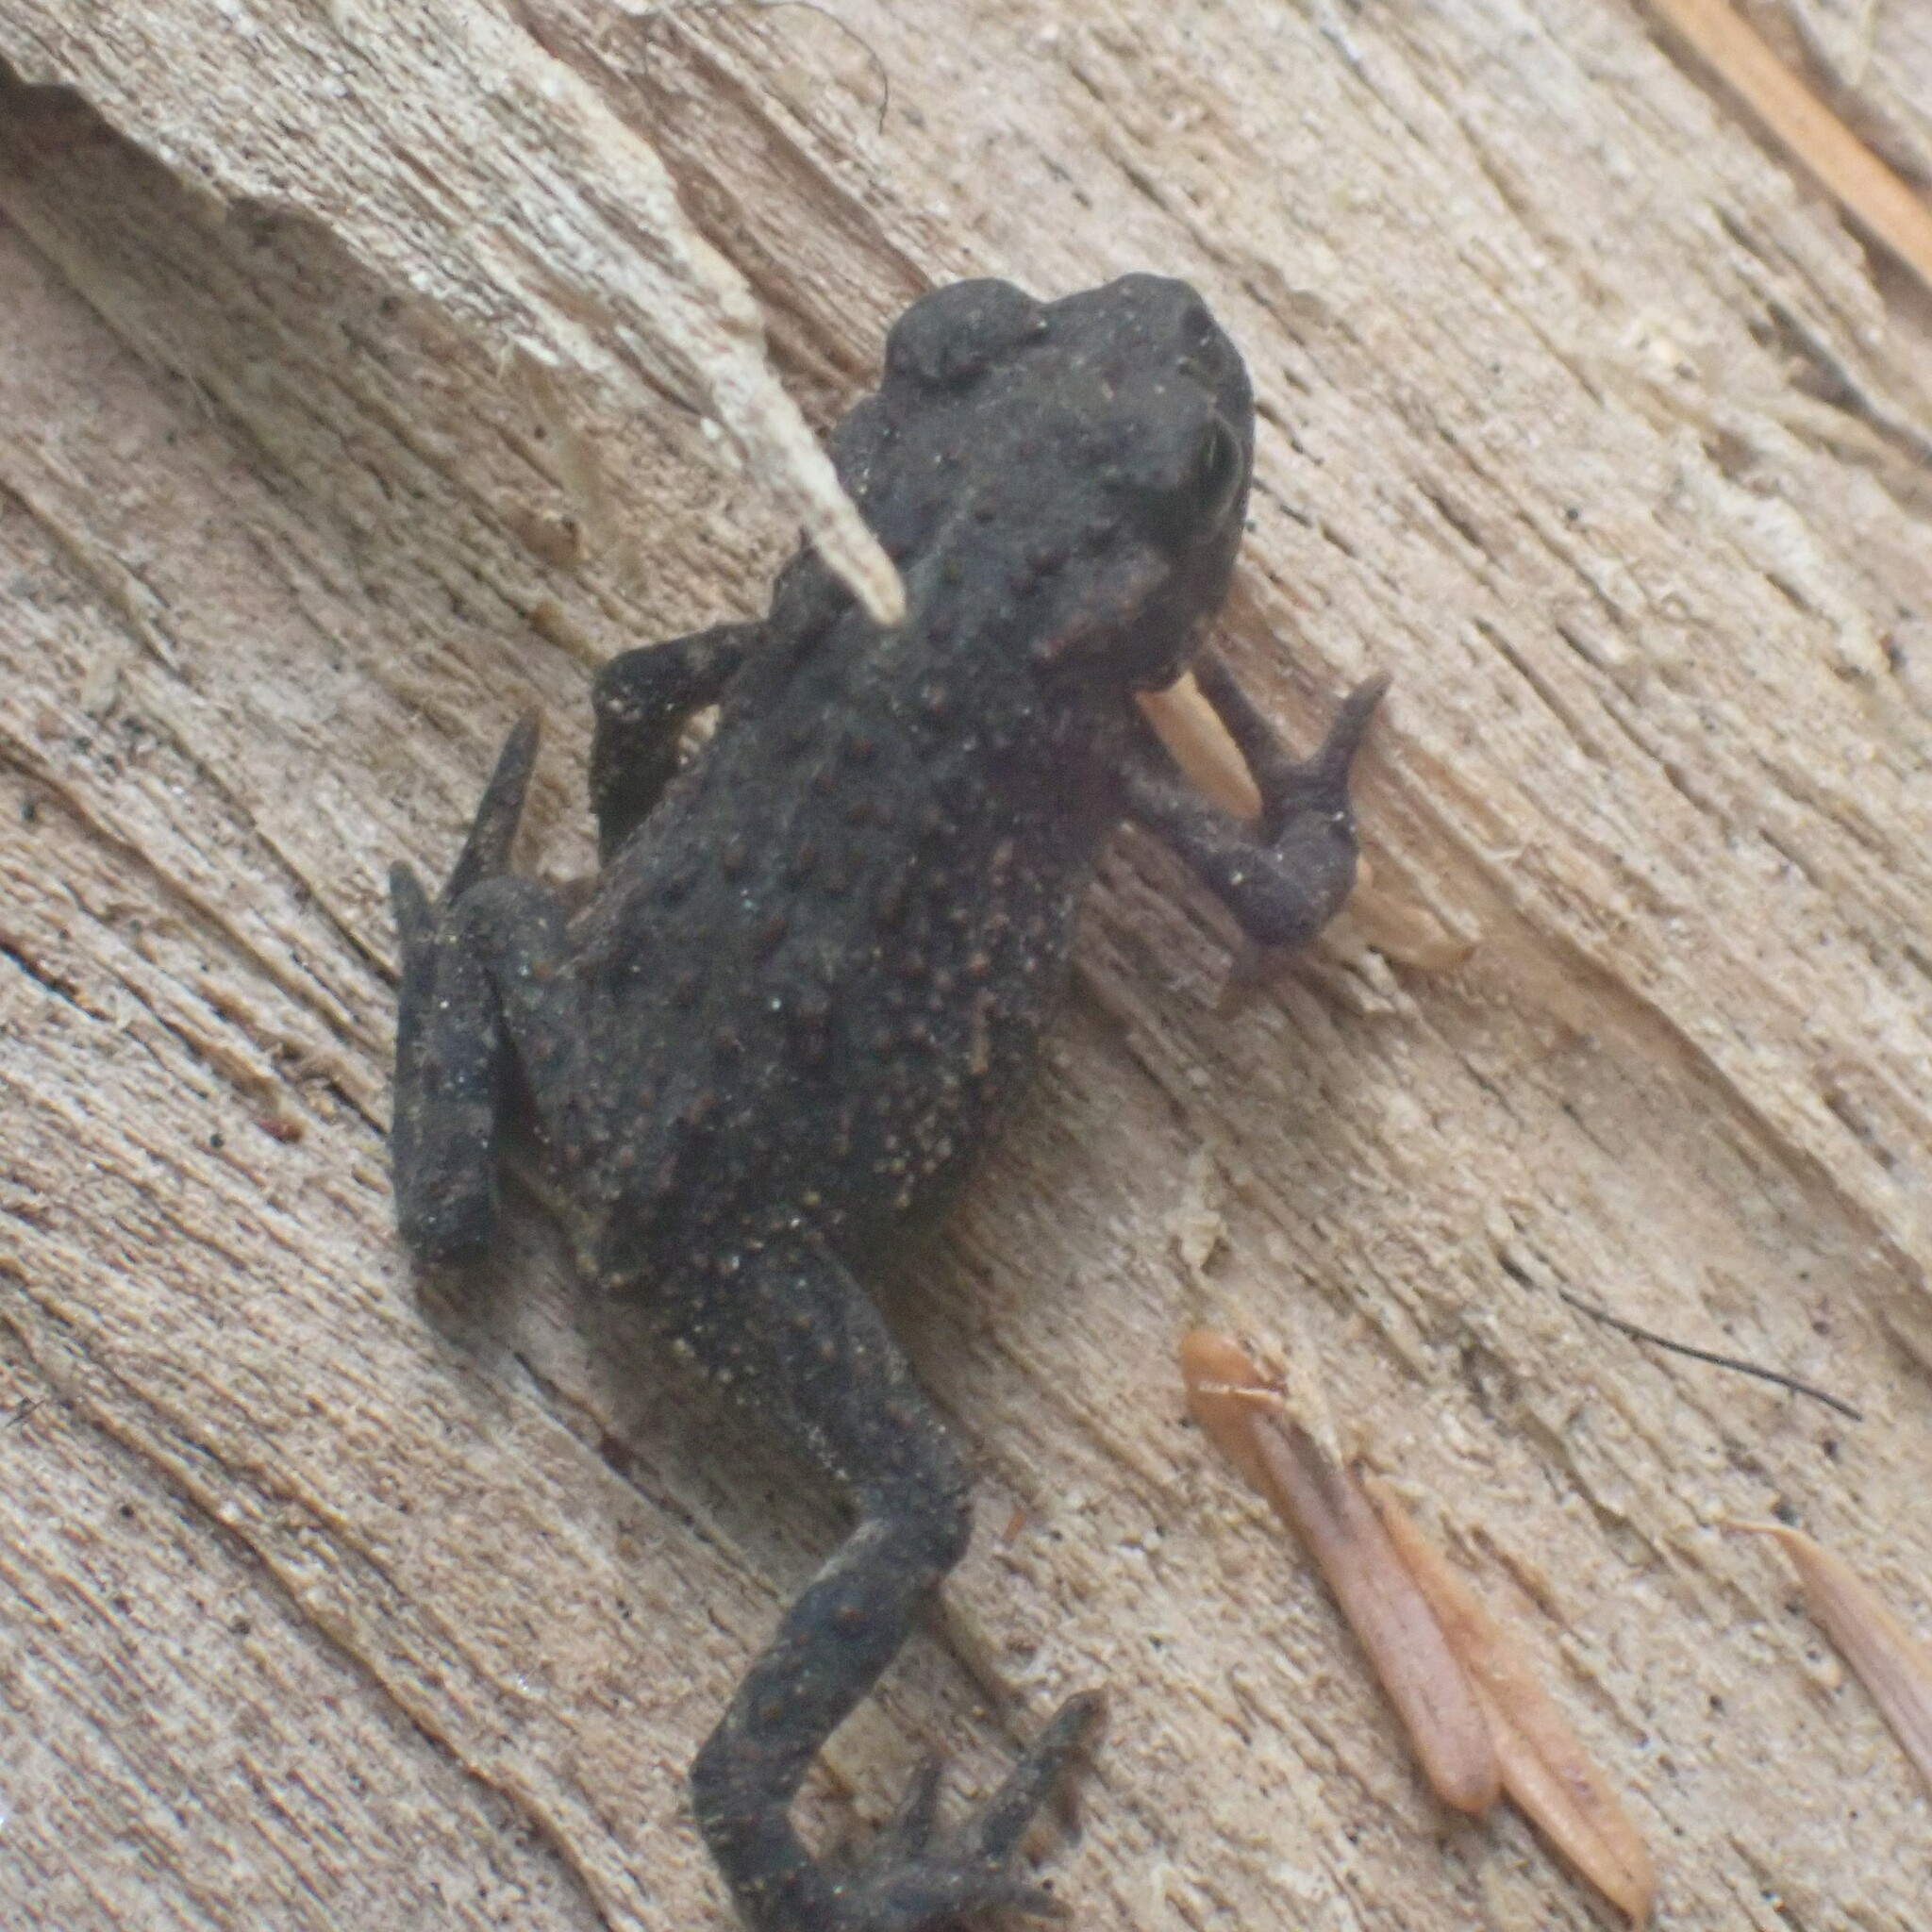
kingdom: Animalia
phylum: Chordata
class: Amphibia
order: Anura
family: Bufonidae
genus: Anaxyrus
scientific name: Anaxyrus boreas
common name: Western toad
